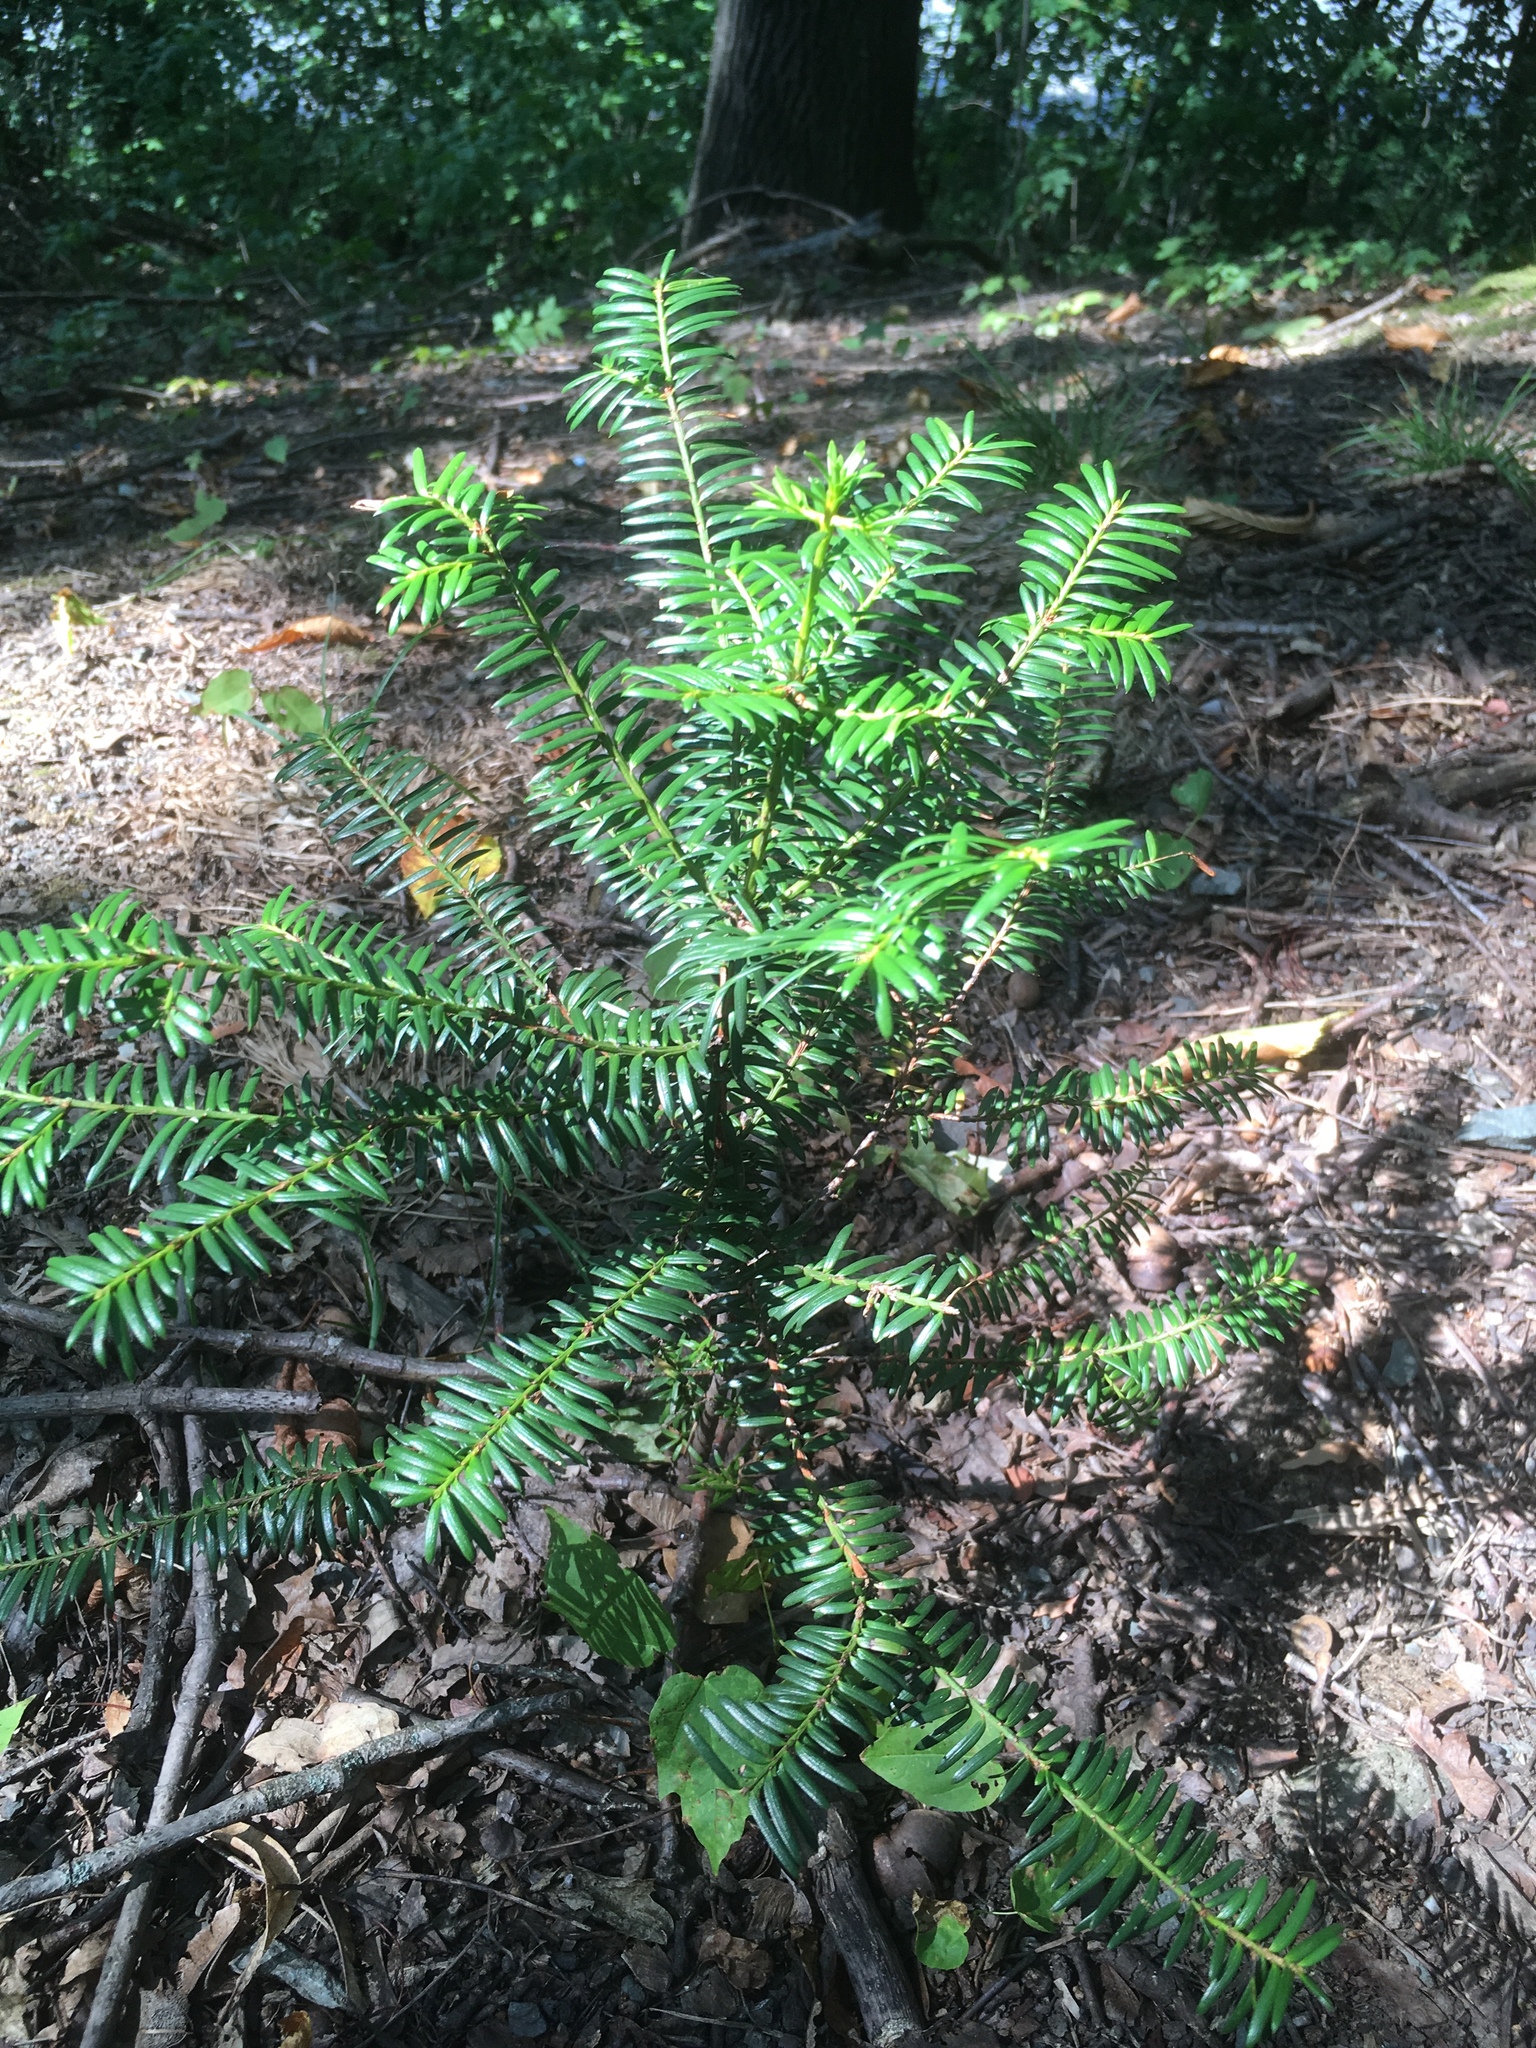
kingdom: Plantae
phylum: Tracheophyta
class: Pinopsida
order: Pinales
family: Taxaceae
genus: Taxus
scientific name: Taxus baccata
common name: Yew
